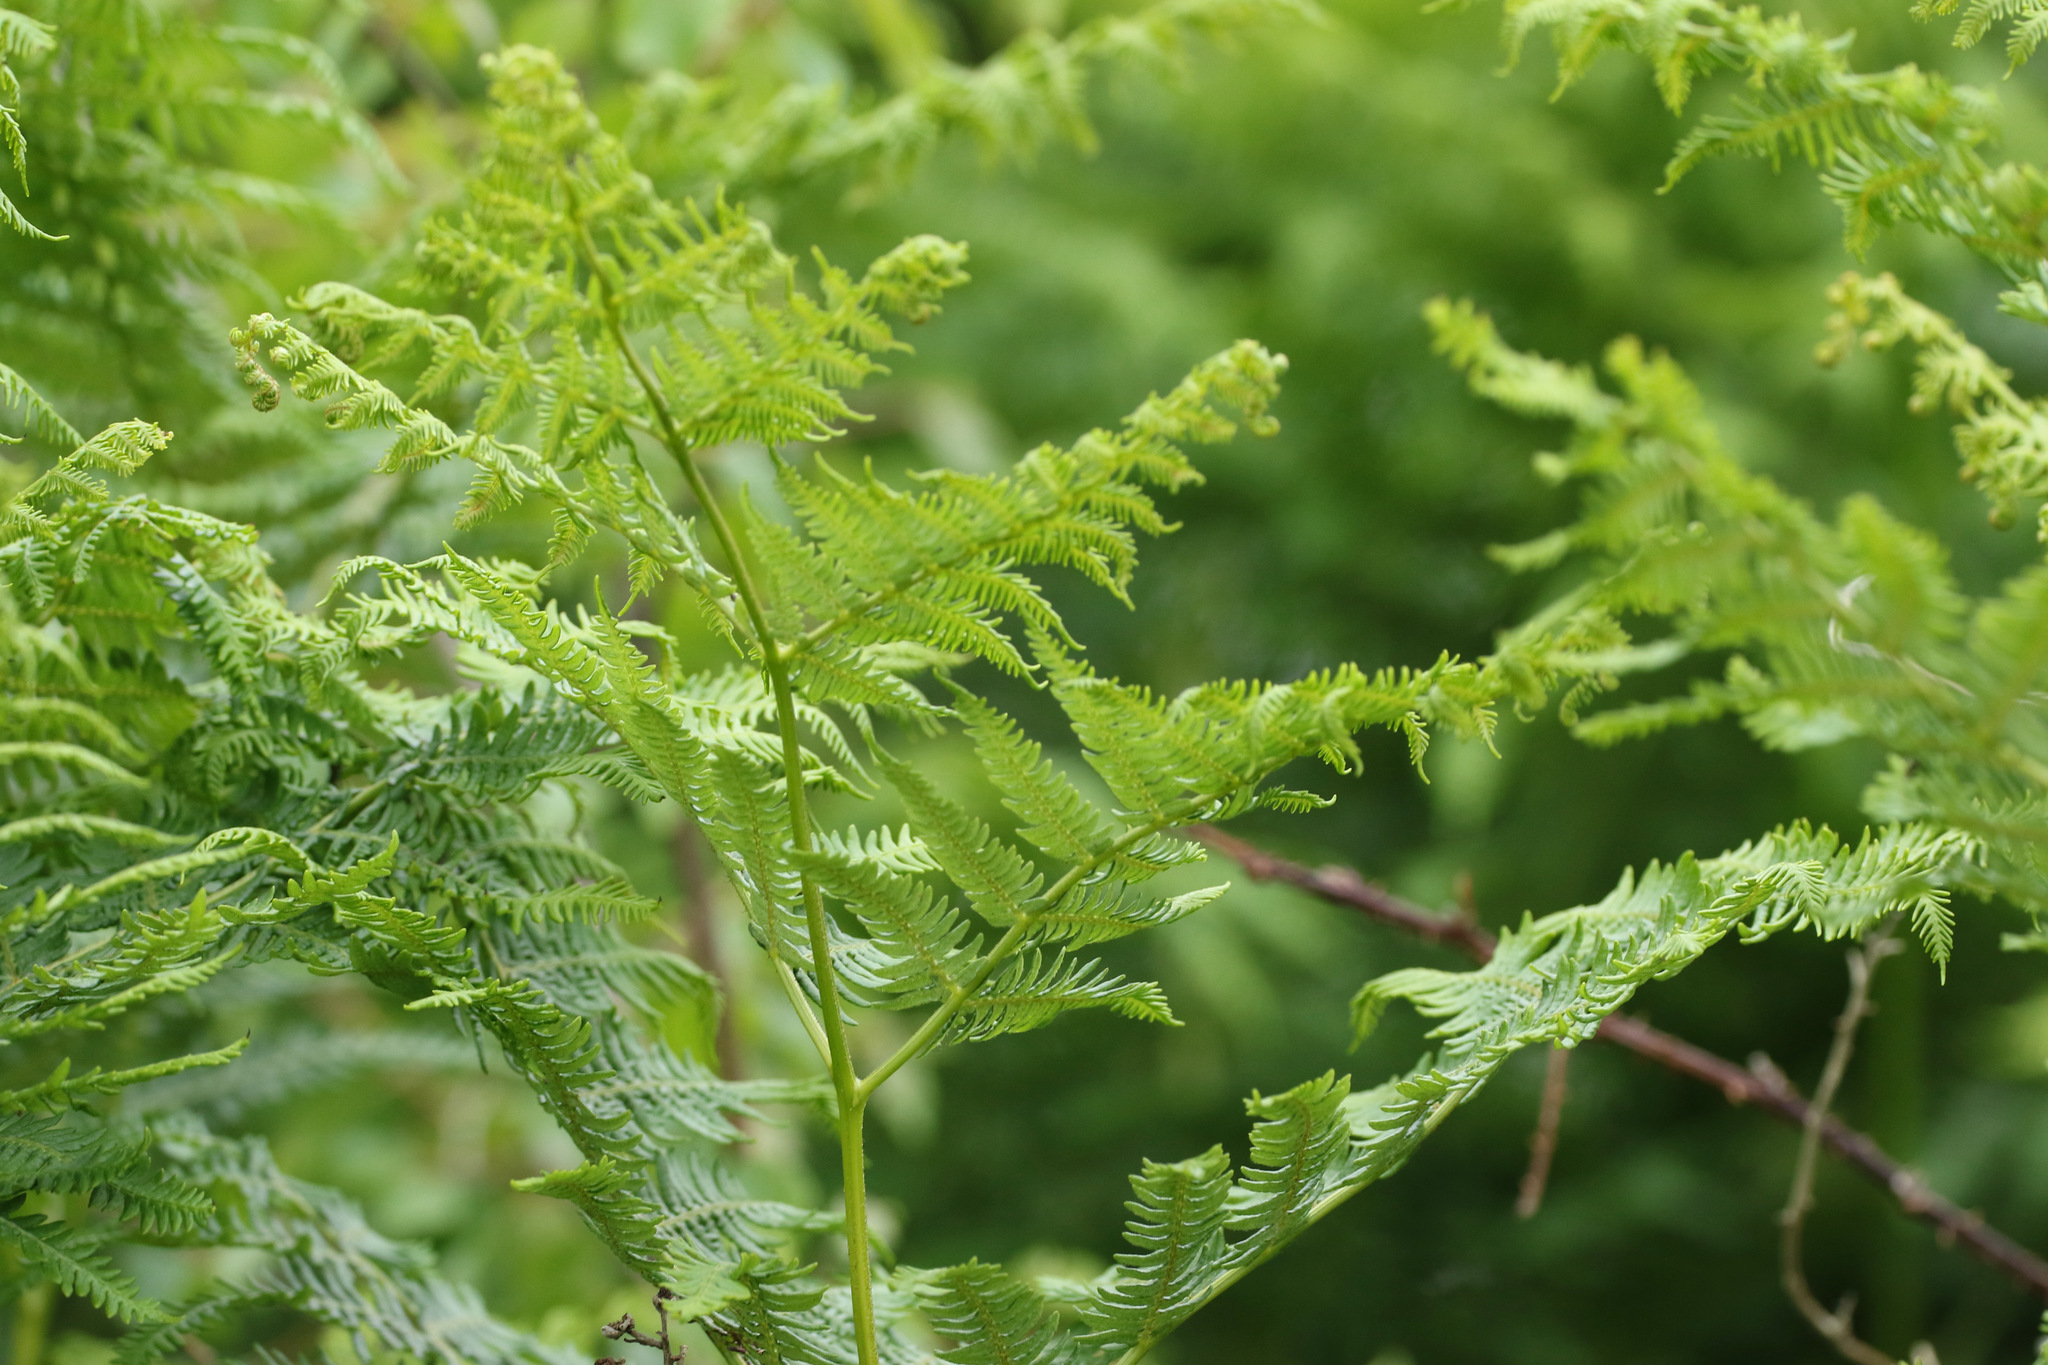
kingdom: Plantae
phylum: Tracheophyta
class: Polypodiopsida
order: Polypodiales
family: Dennstaedtiaceae
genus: Pteridium
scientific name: Pteridium aquilinum
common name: Bracken
